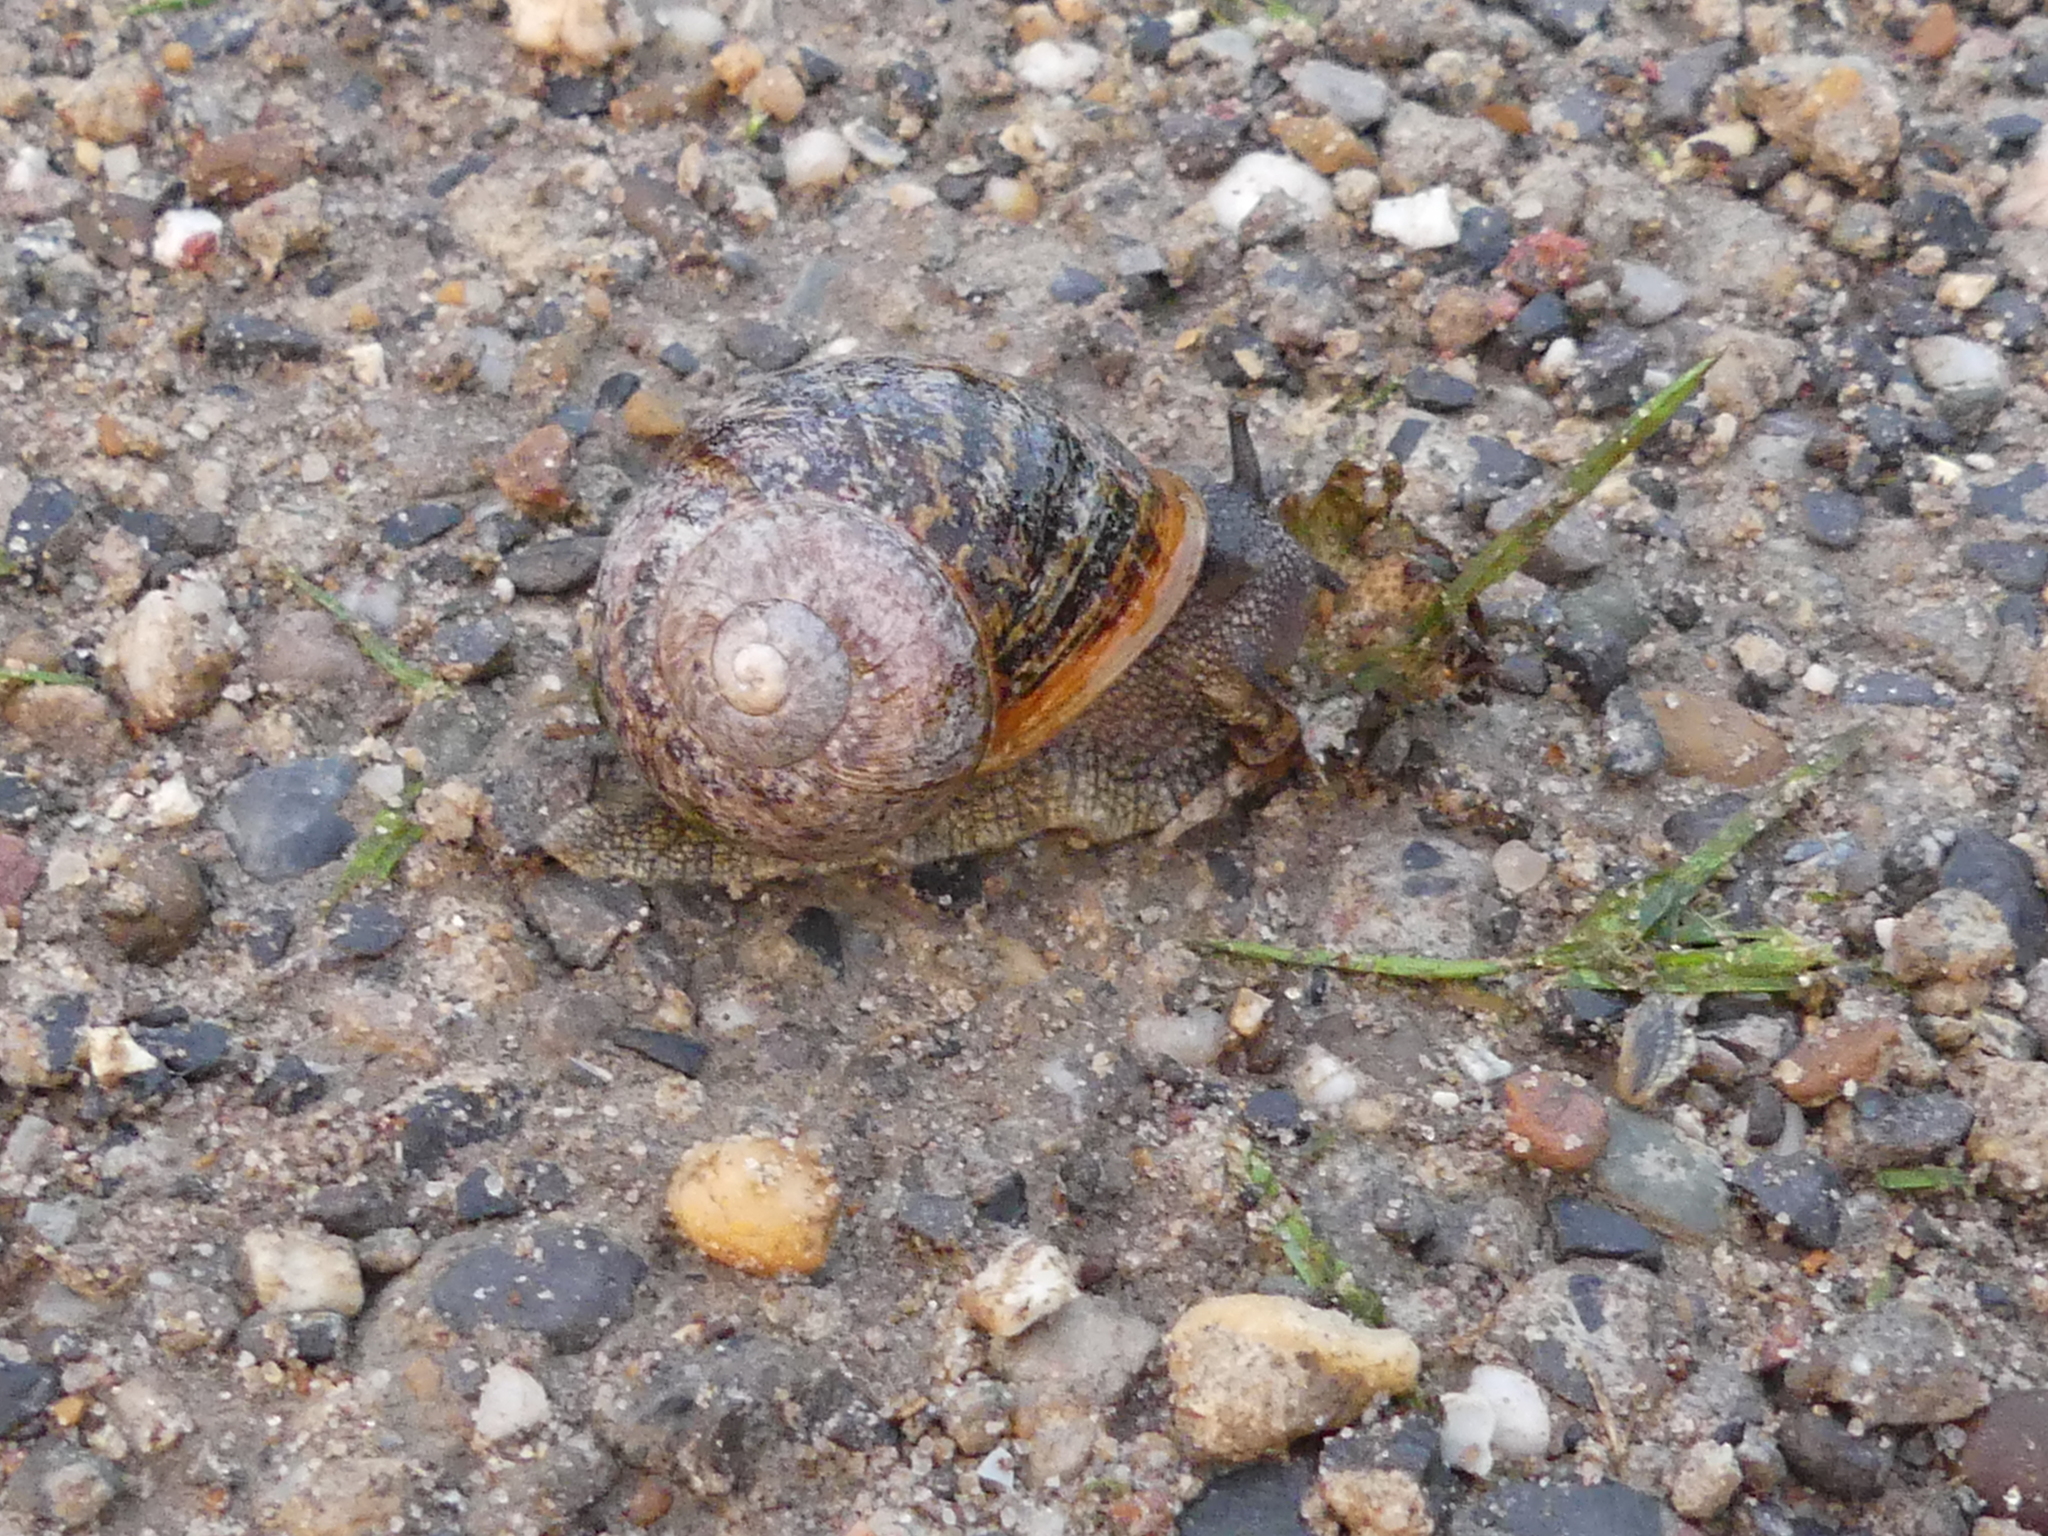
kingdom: Animalia
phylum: Mollusca
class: Gastropoda
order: Stylommatophora
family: Helicidae
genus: Cornu
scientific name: Cornu aspersum
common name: Brown garden snail
